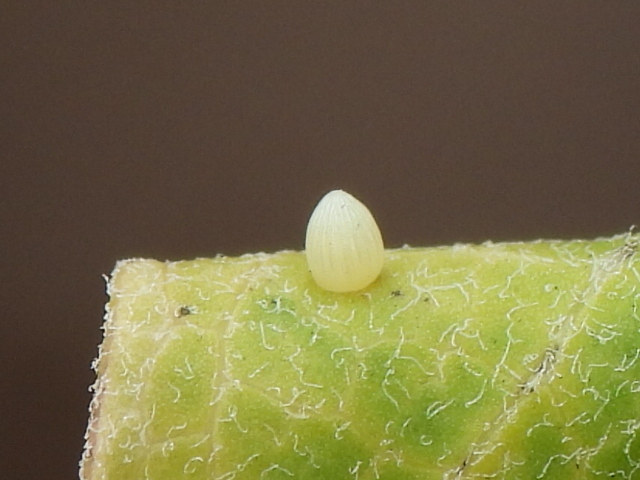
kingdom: Animalia
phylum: Arthropoda
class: Insecta
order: Lepidoptera
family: Nymphalidae
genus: Danaus
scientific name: Danaus plexippus
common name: Monarch
